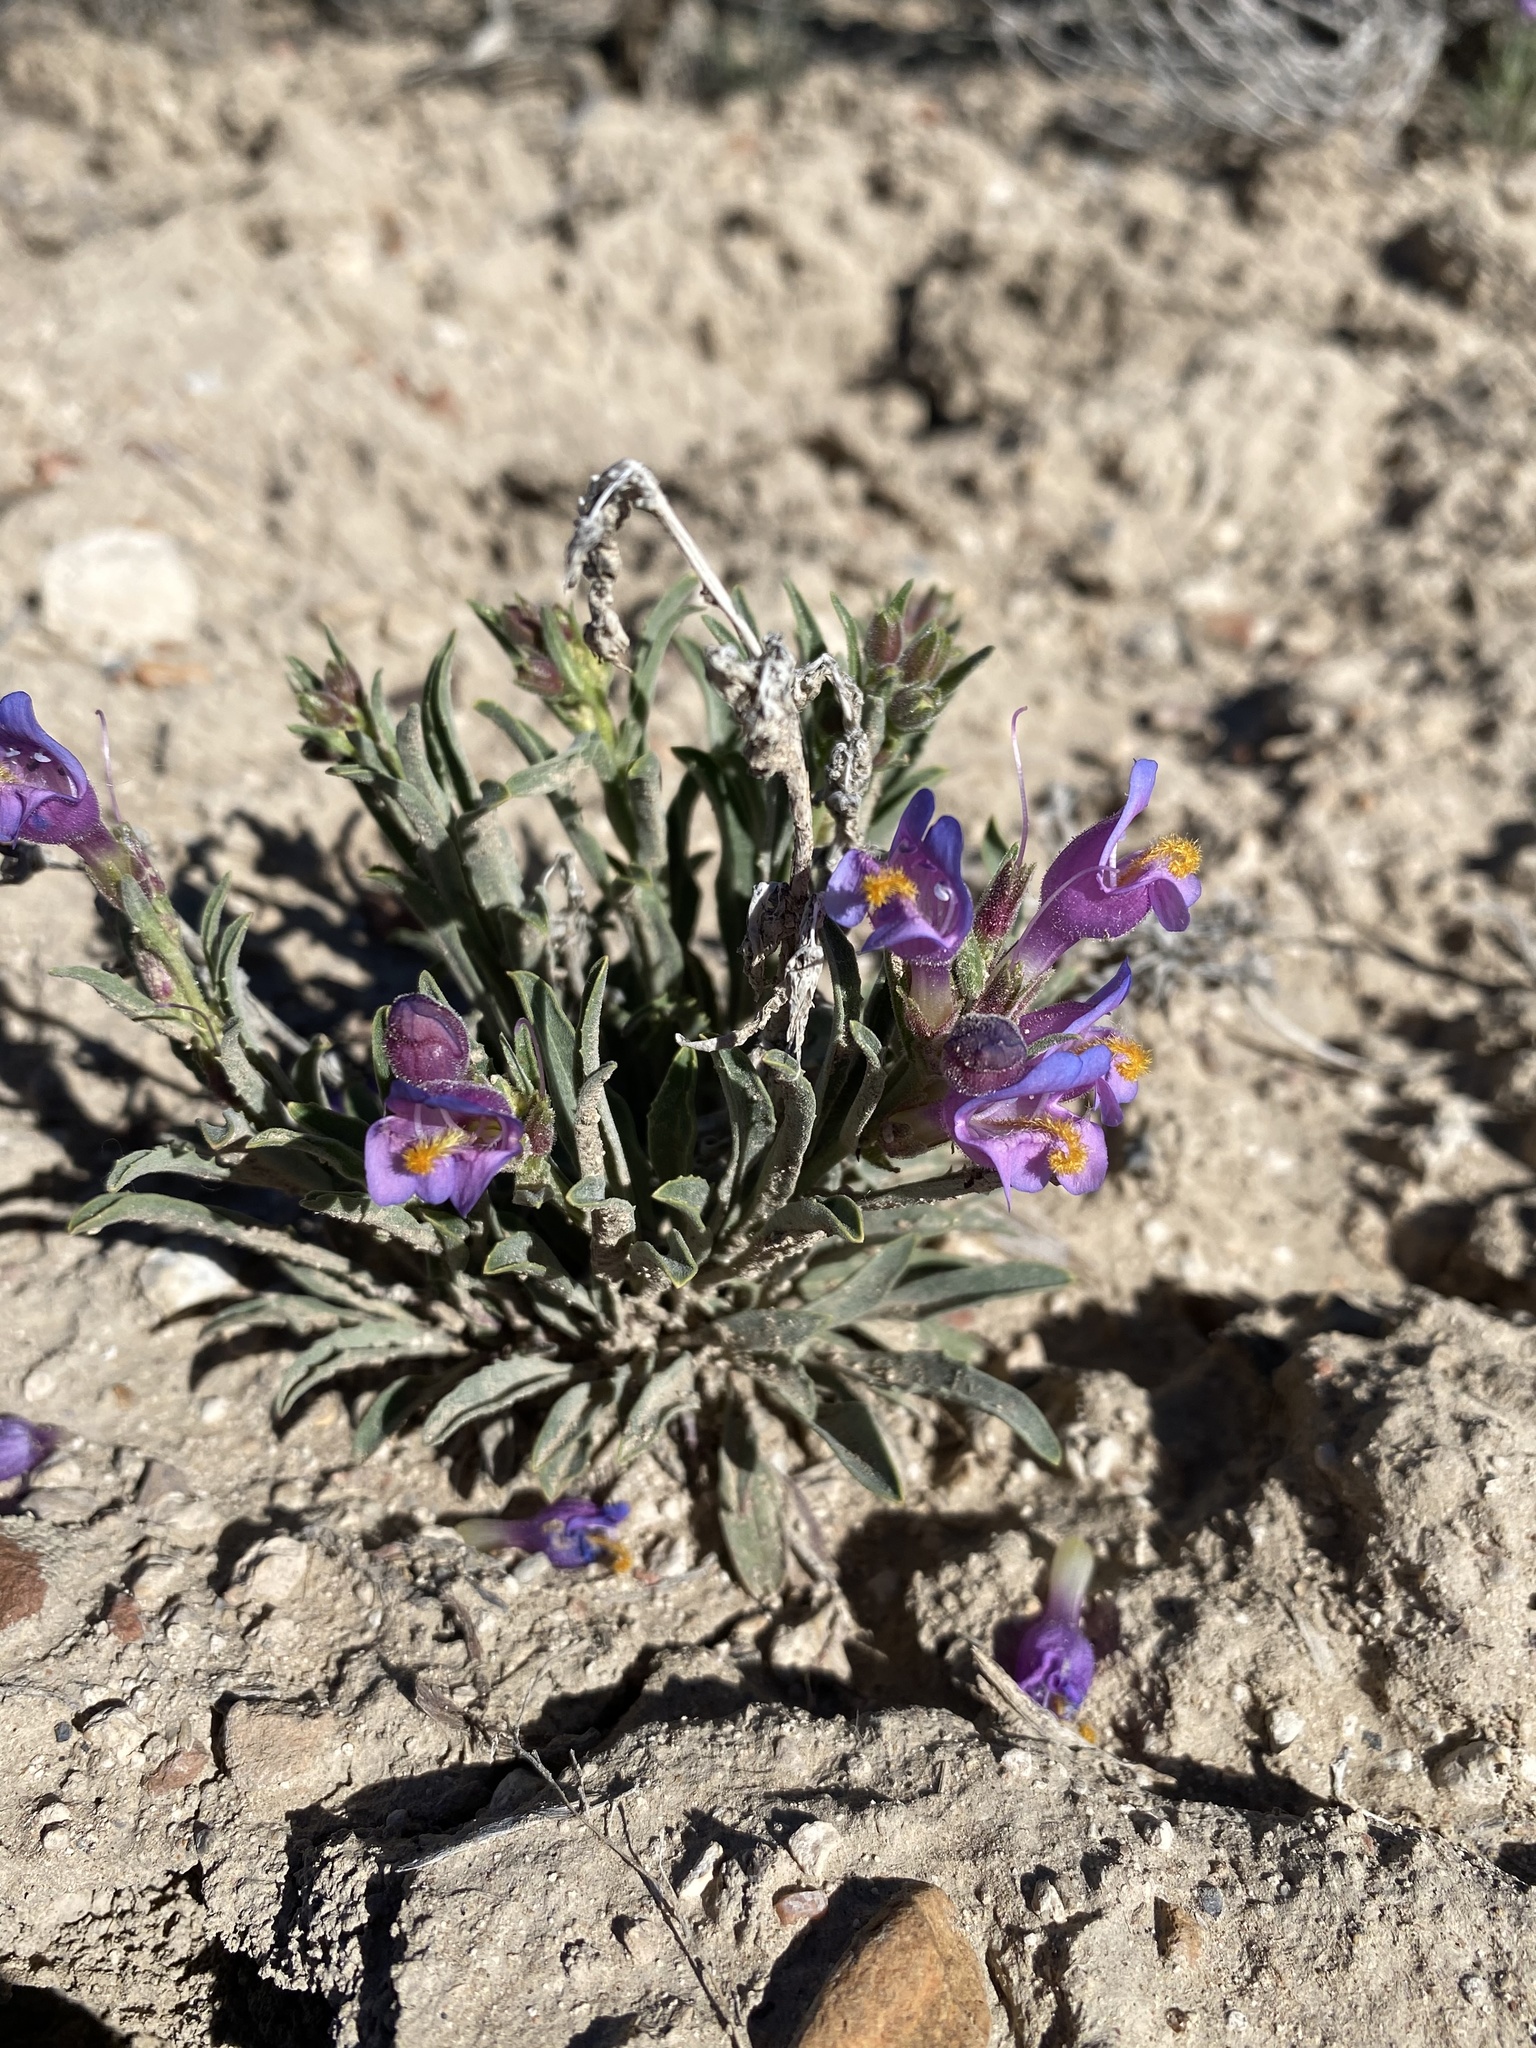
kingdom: Plantae
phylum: Tracheophyta
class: Magnoliopsida
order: Lamiales
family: Plantaginaceae
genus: Penstemon
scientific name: Penstemon janishiae
